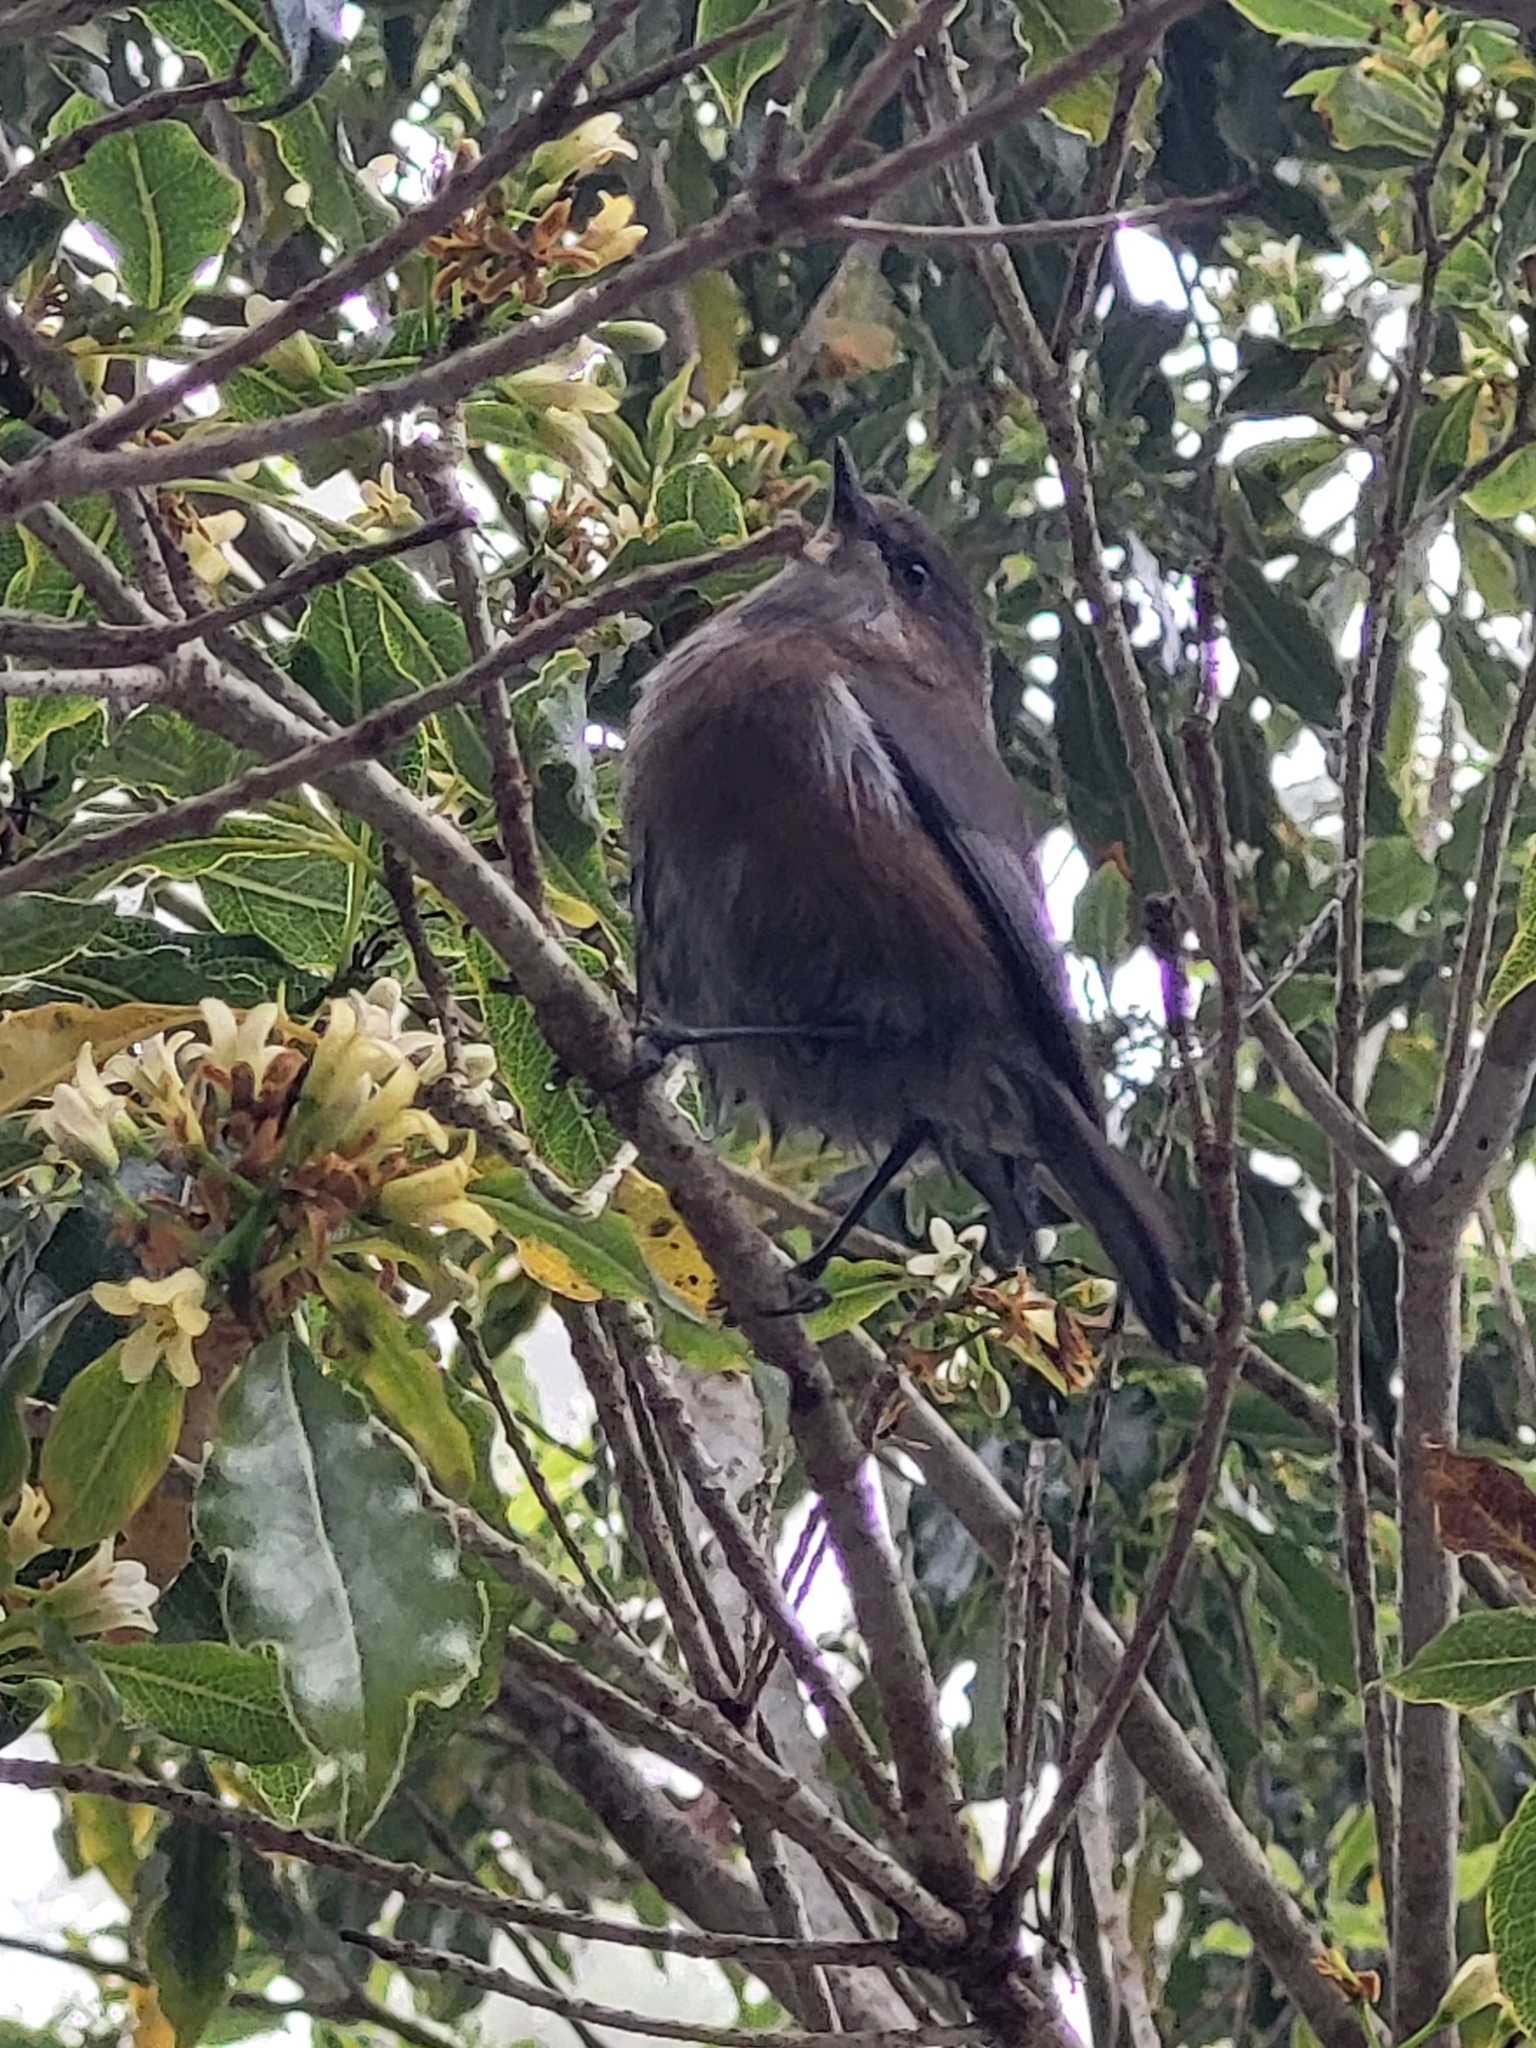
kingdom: Animalia
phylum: Chordata
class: Aves
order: Passeriformes
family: Zosteropidae
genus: Zosterops
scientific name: Zosterops borbonicus
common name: Reunion grey white-eye
